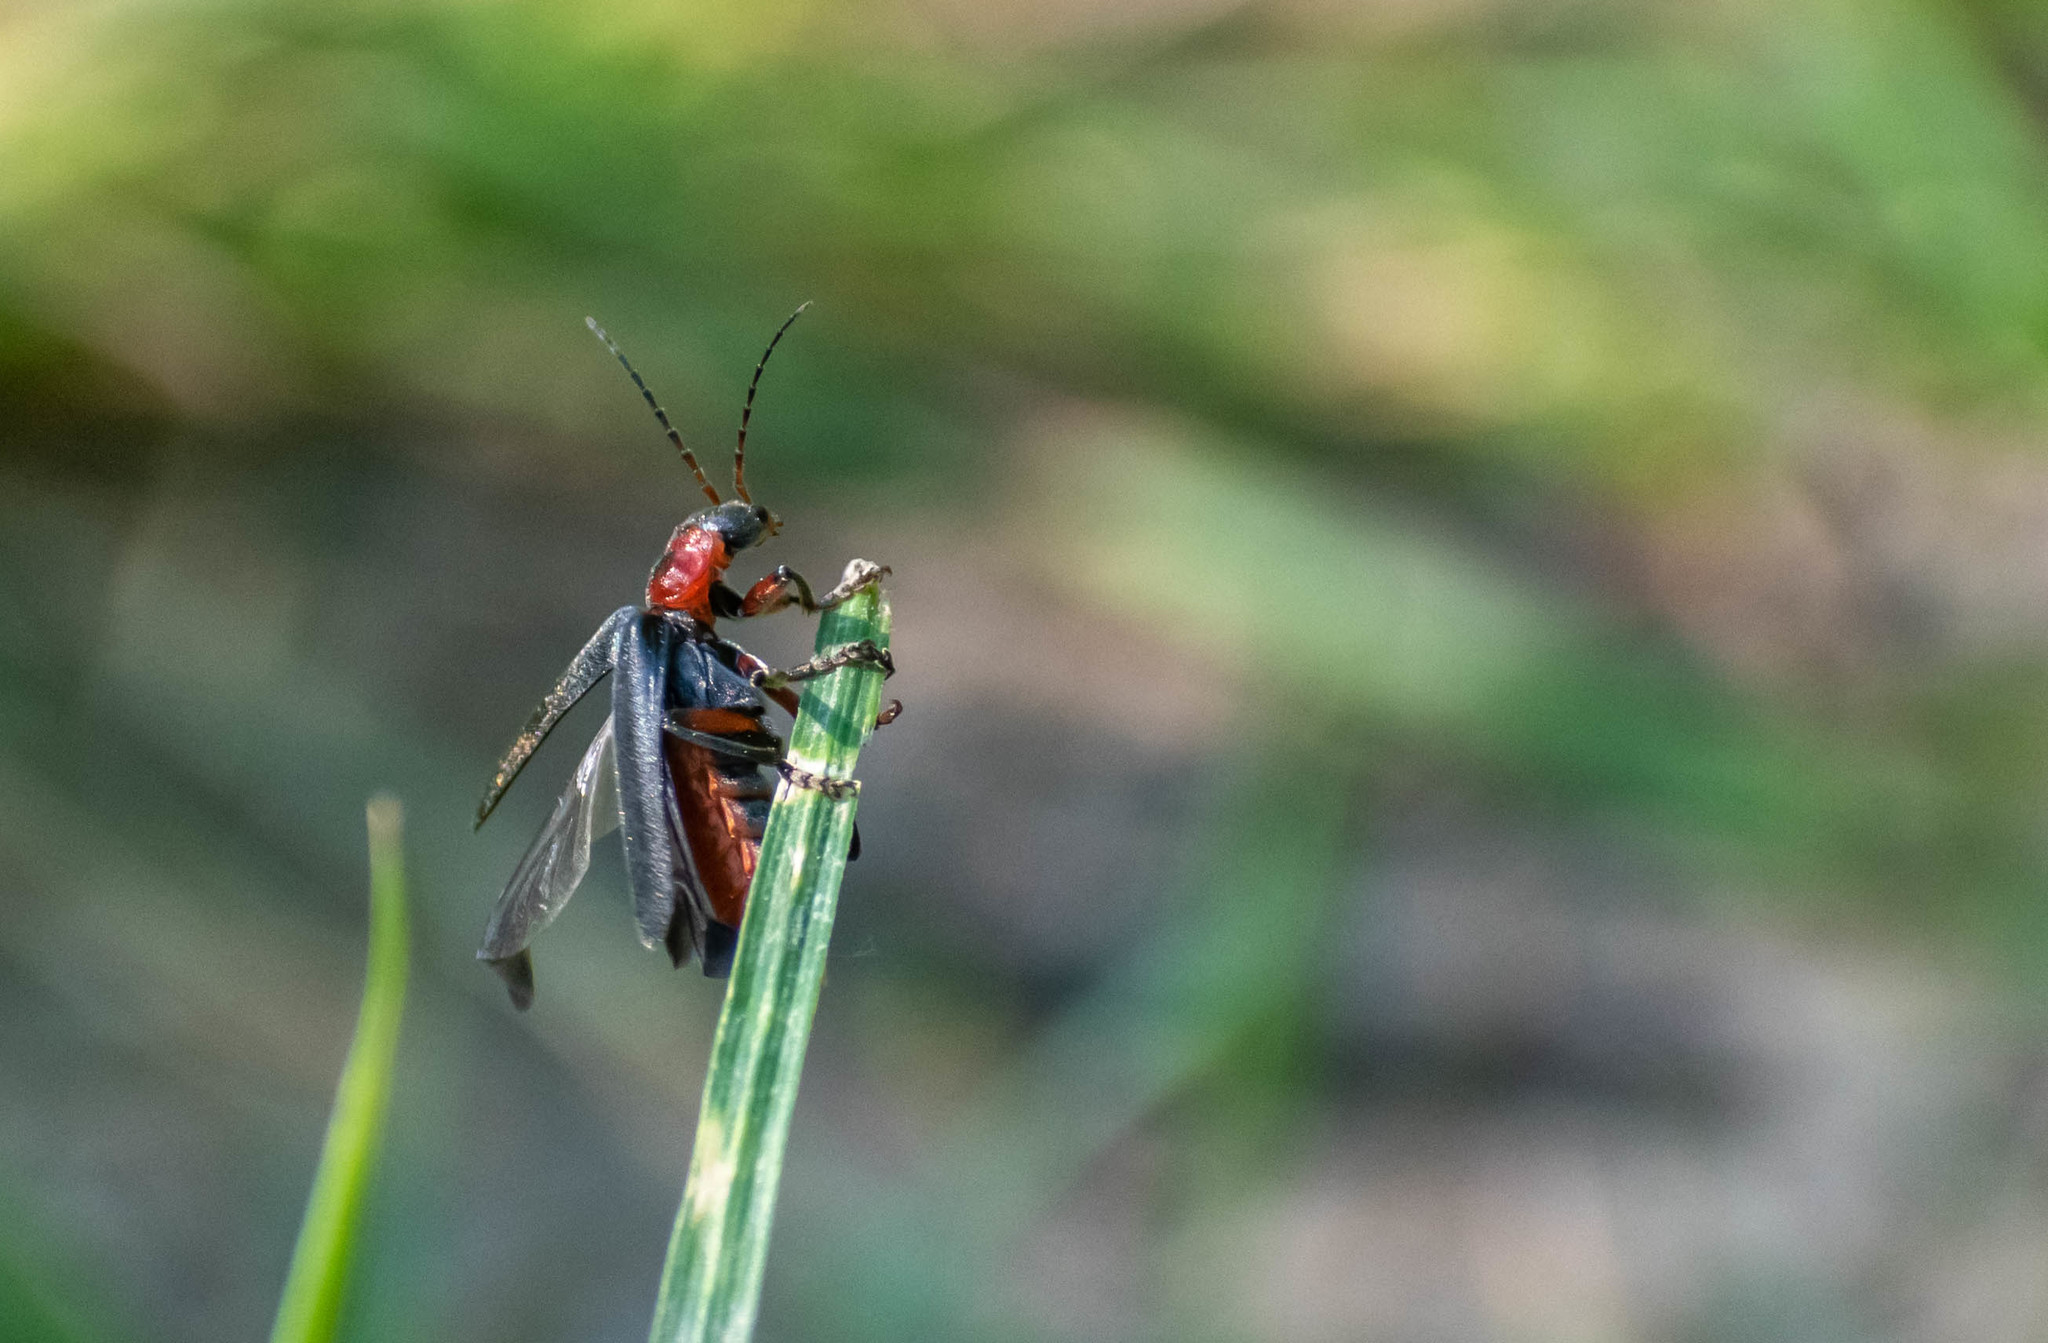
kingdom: Animalia
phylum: Arthropoda
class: Insecta
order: Coleoptera
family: Cantharidae
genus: Cantharis
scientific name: Cantharis rustica
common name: Soldier beetle
